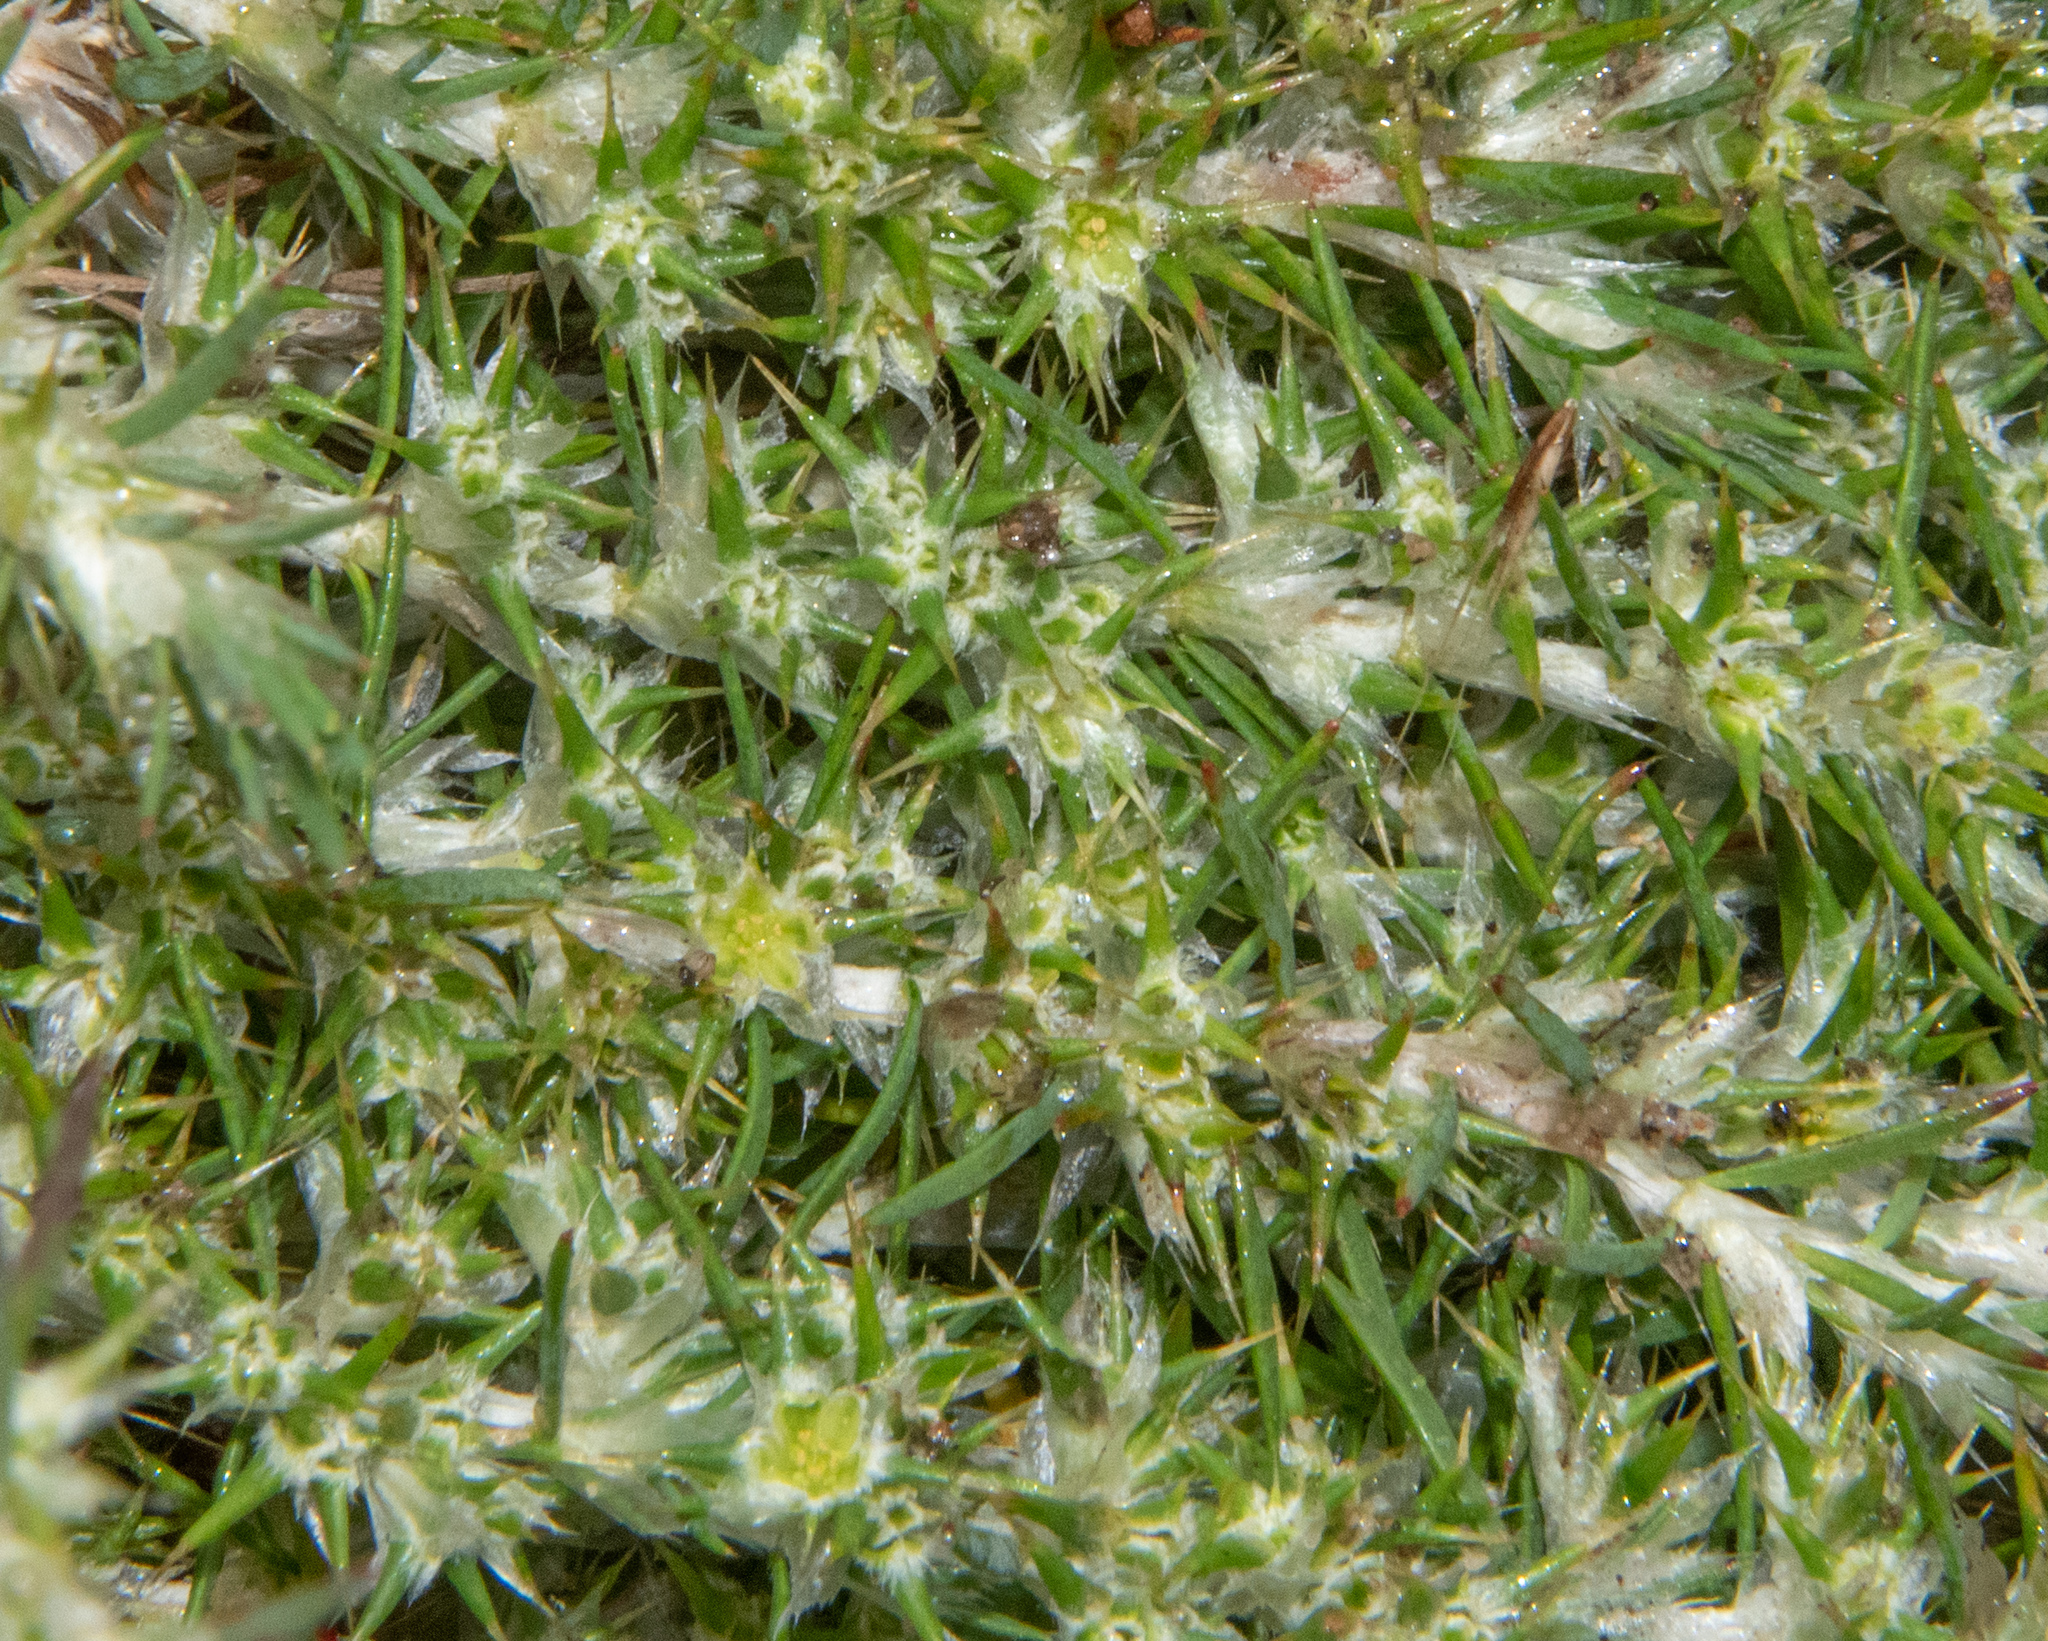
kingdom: Plantae
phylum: Tracheophyta
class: Magnoliopsida
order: Caryophyllales
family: Caryophyllaceae
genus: Cardionema
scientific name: Cardionema ramosissima
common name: Sandcarpet
